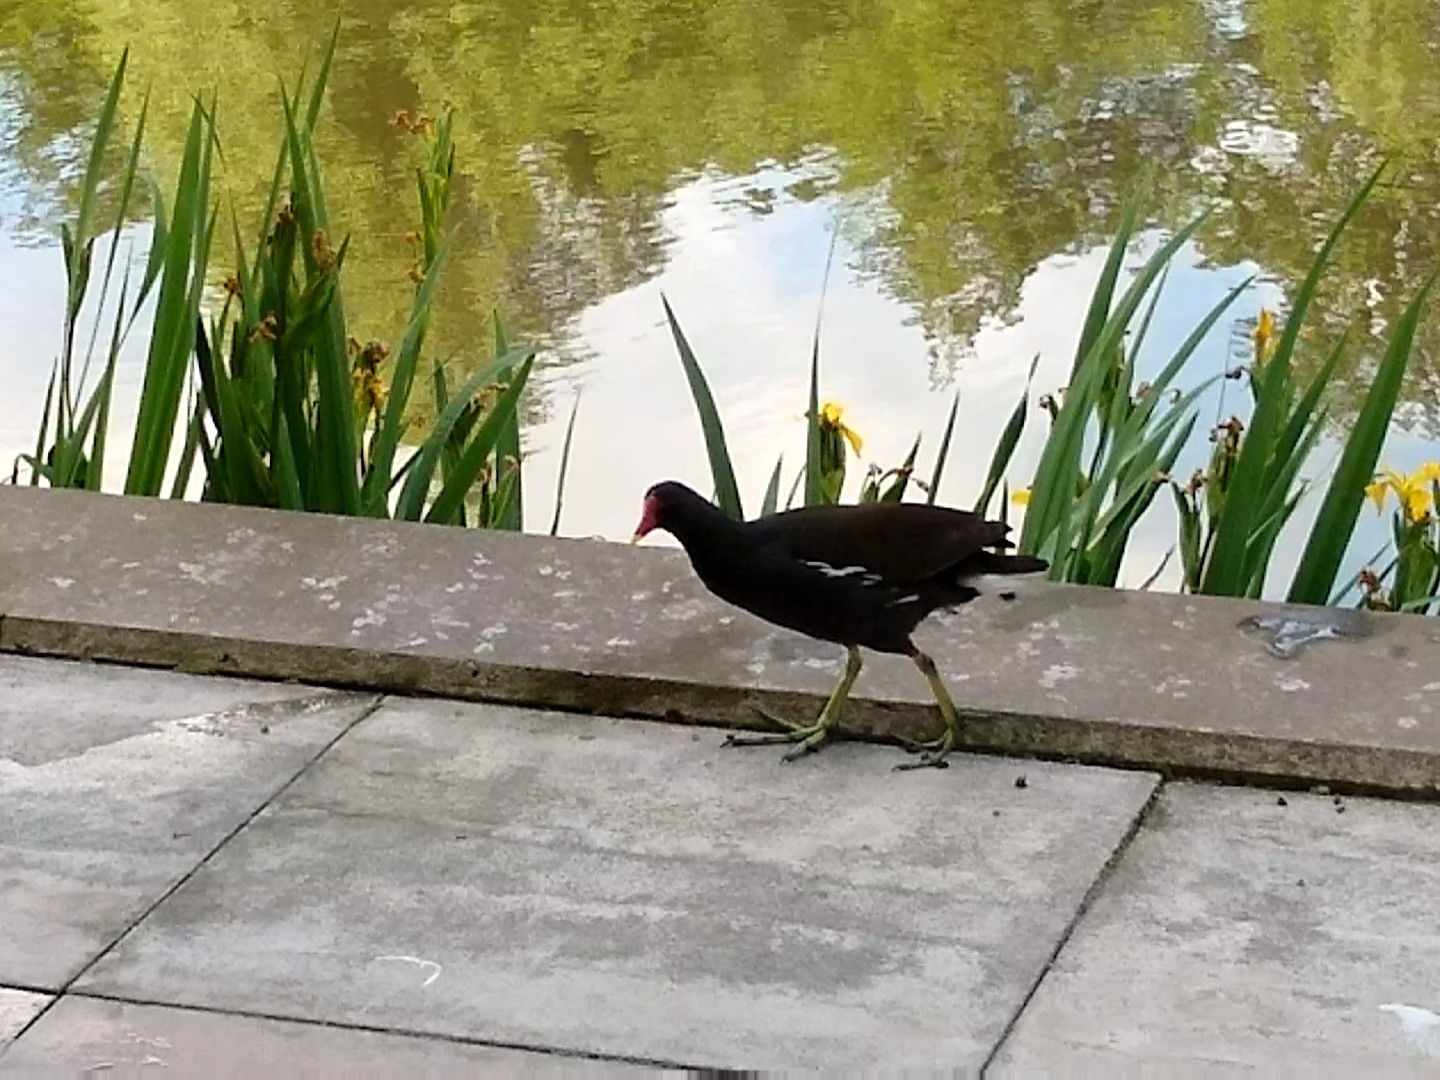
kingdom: Animalia
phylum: Chordata
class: Aves
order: Gruiformes
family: Rallidae
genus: Gallinula
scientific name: Gallinula chloropus
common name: Common moorhen
